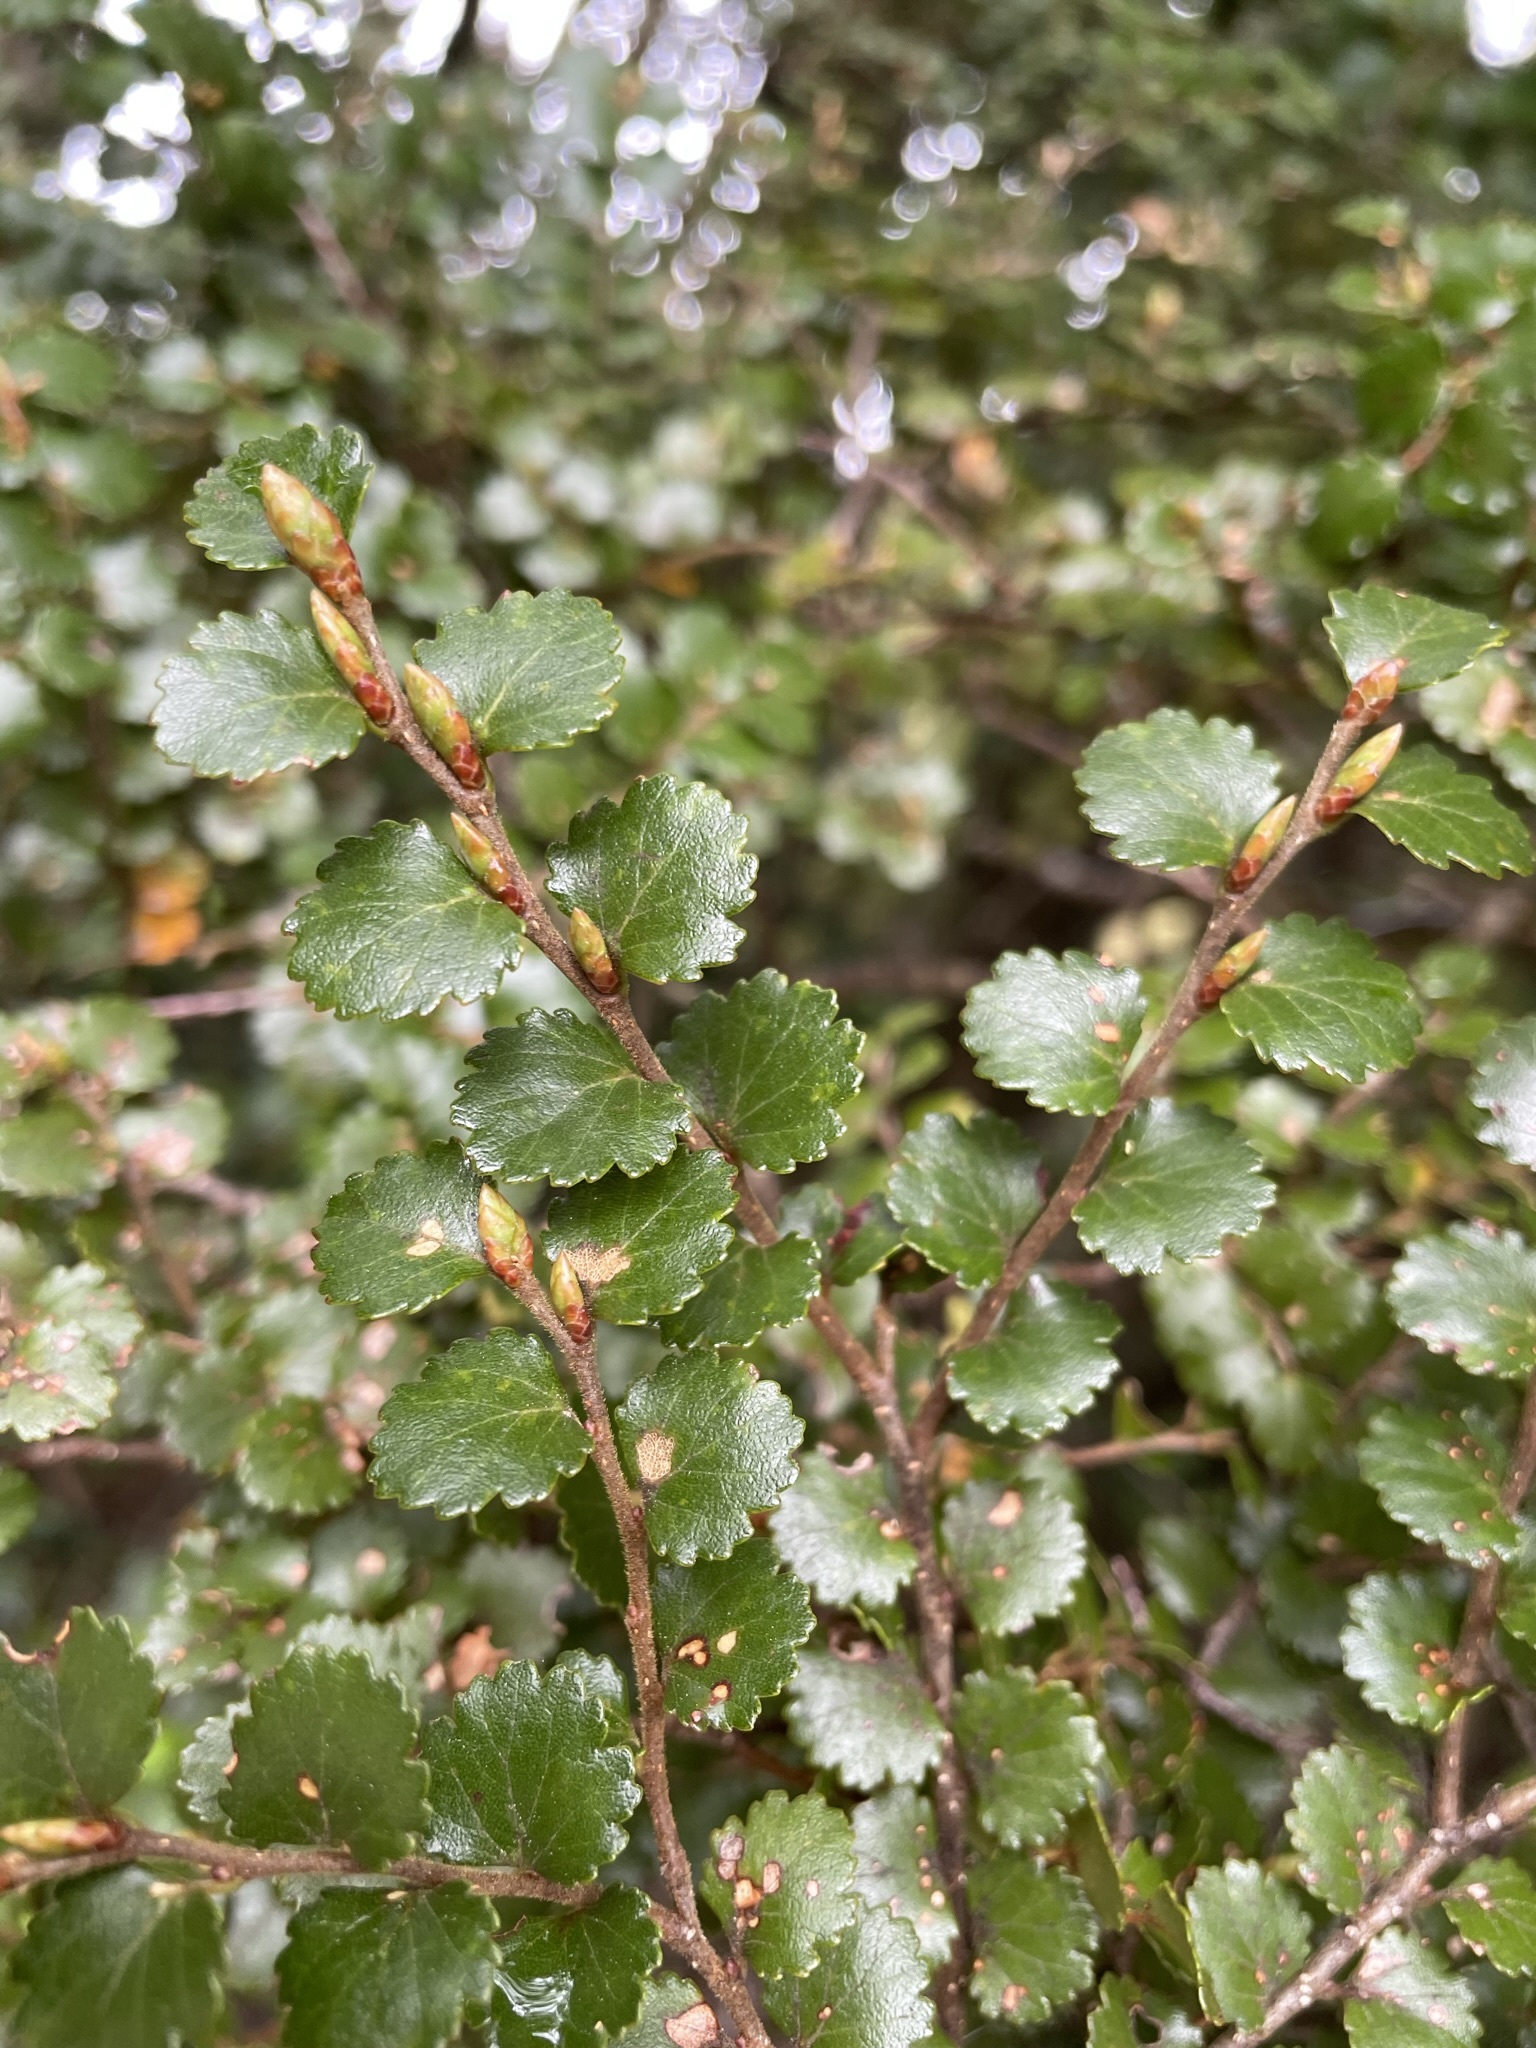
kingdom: Plantae
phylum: Tracheophyta
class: Magnoliopsida
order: Fagales
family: Nothofagaceae
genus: Nothofagus
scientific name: Nothofagus menziesii
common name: Silver beech
